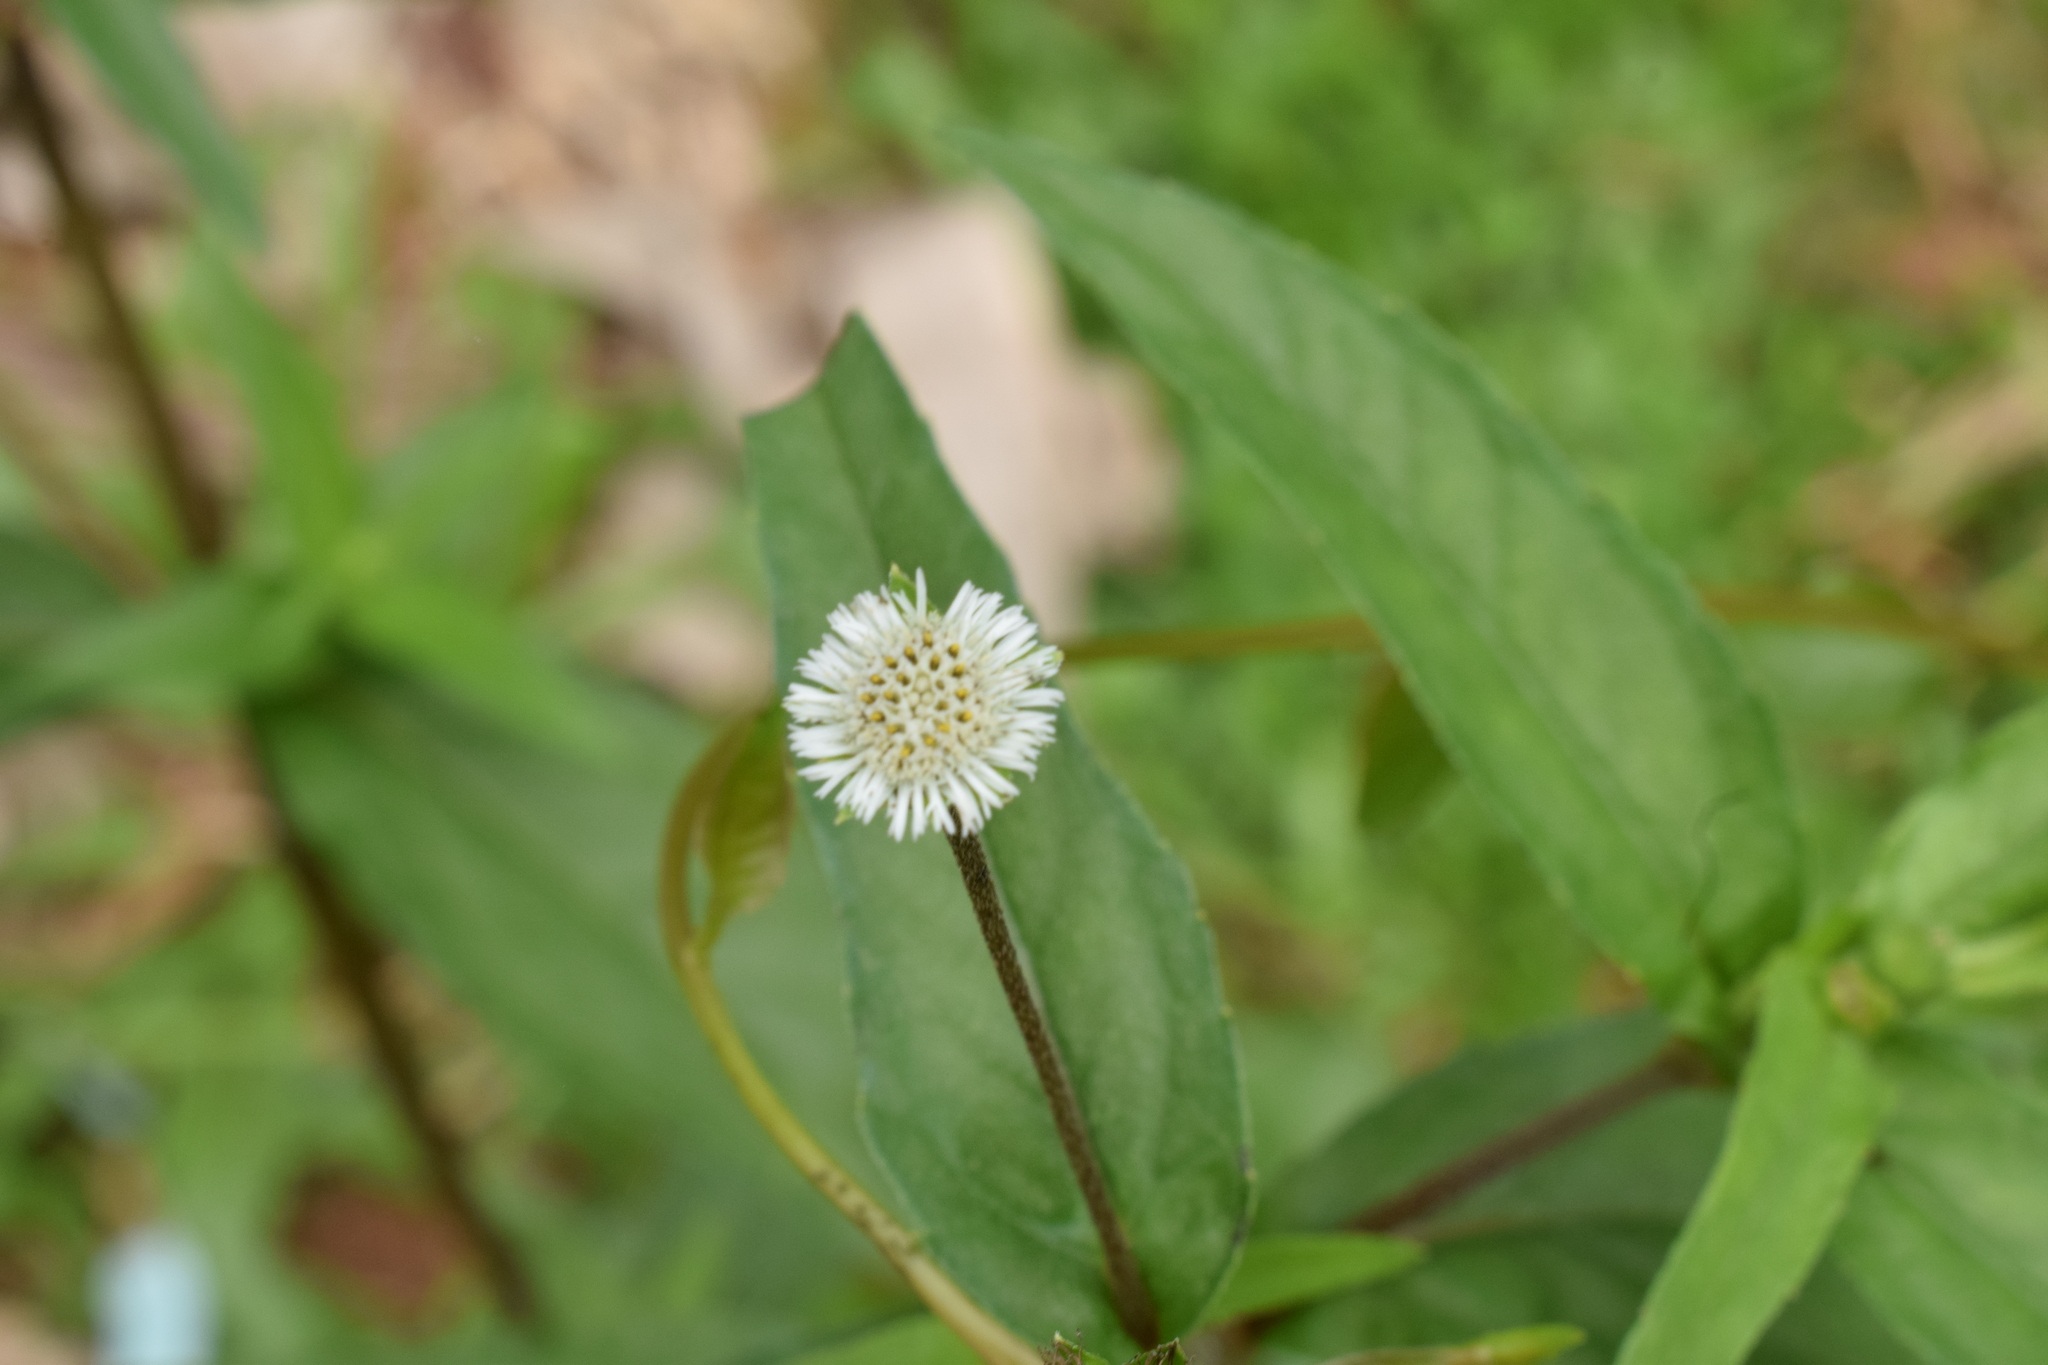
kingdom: Plantae
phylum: Tracheophyta
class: Magnoliopsida
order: Asterales
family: Asteraceae
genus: Eclipta
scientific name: Eclipta prostrata
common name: False daisy
